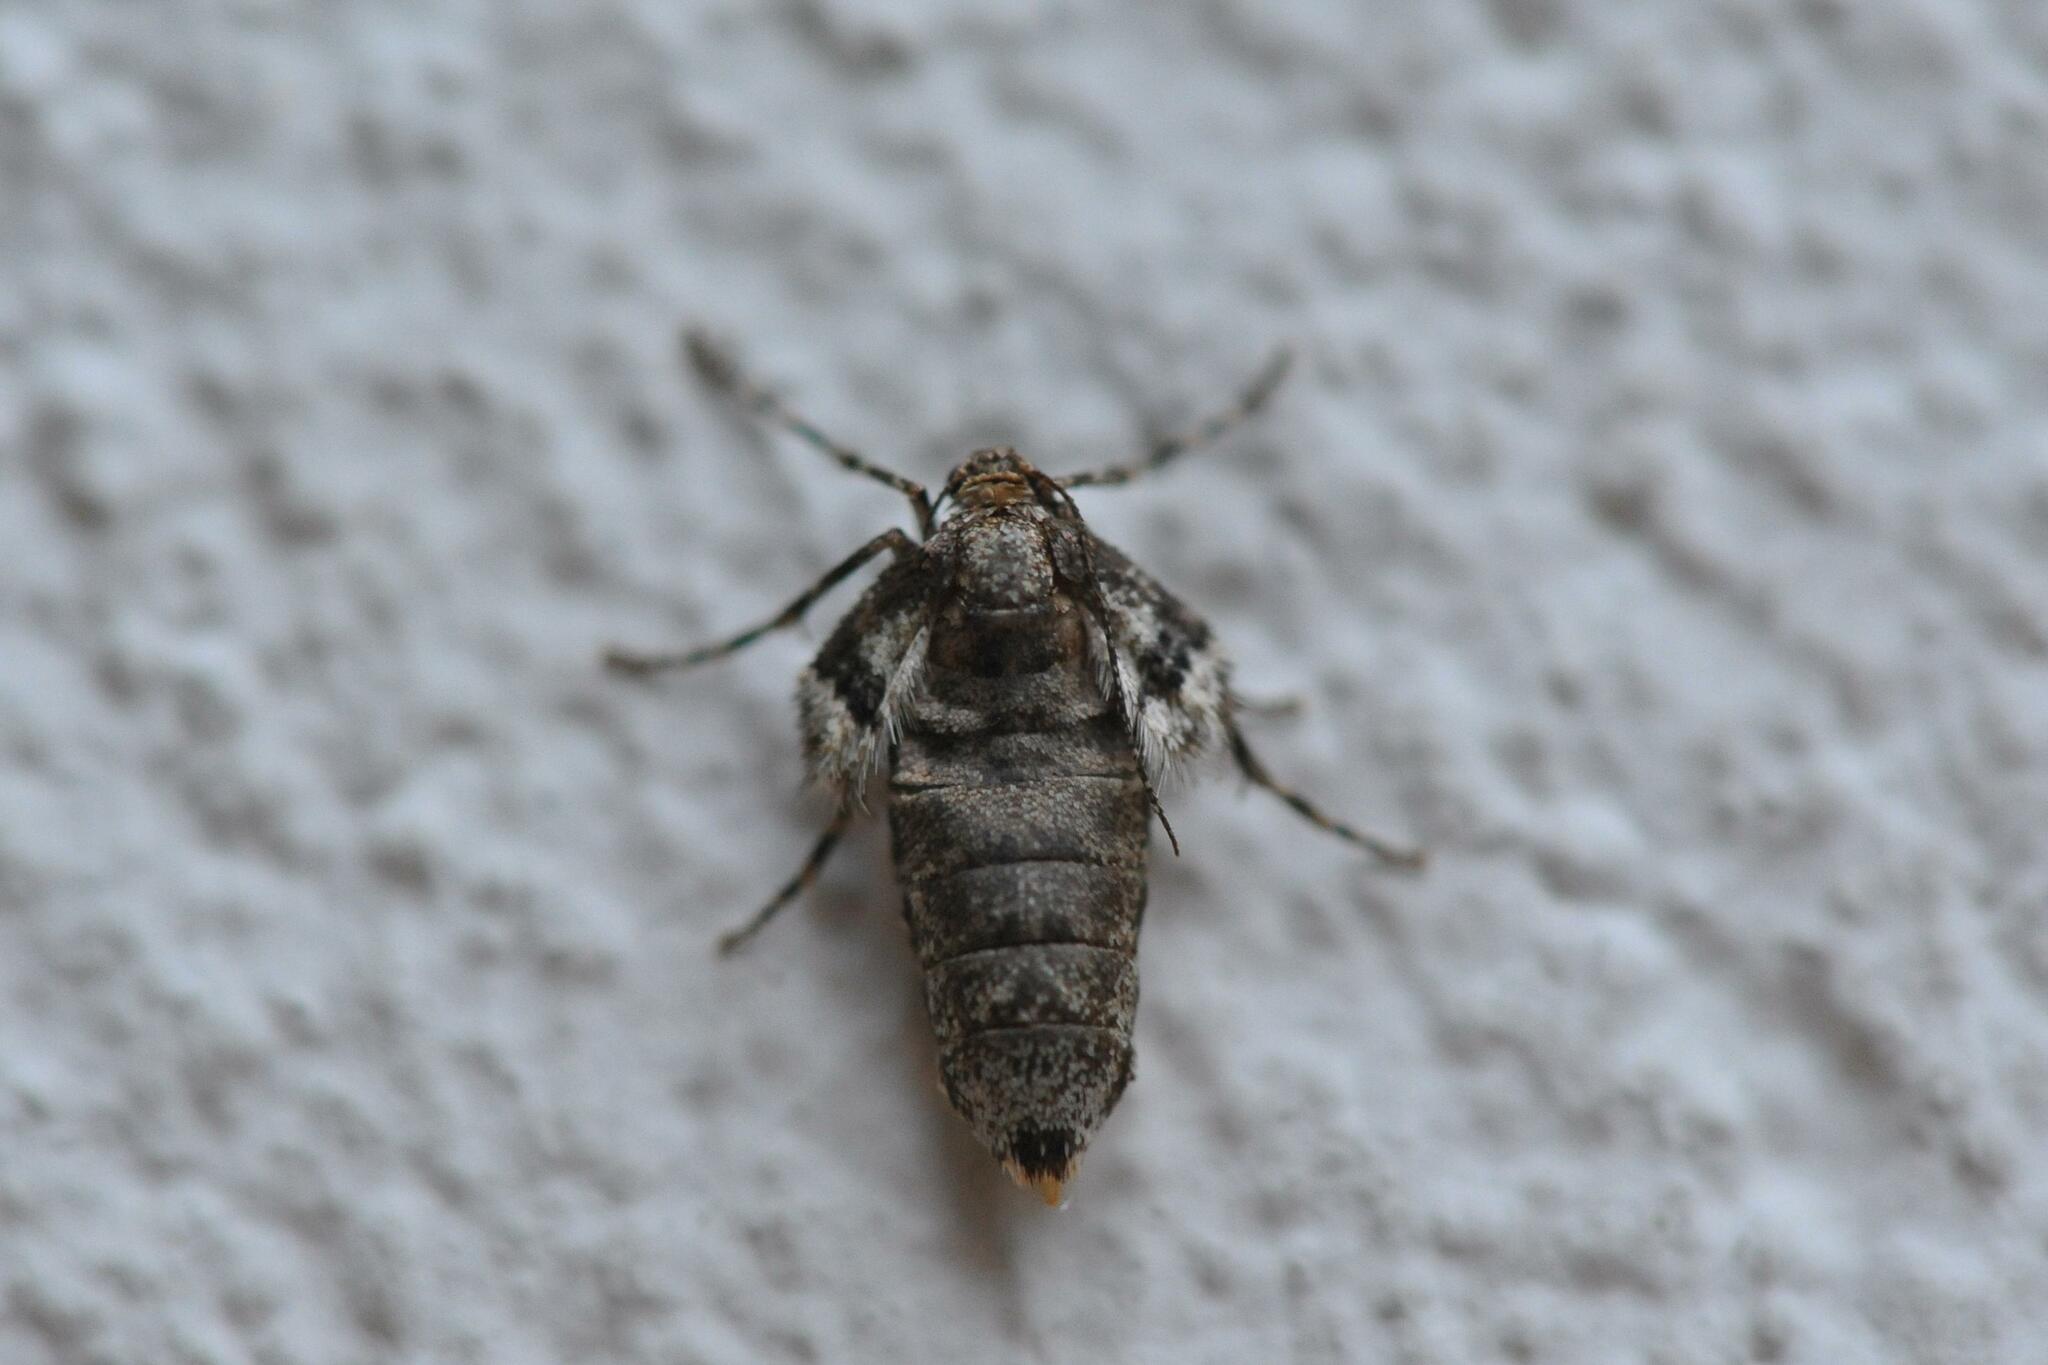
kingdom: Animalia
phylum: Arthropoda
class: Insecta
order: Lepidoptera
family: Geometridae
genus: Operophtera
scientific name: Operophtera brumata
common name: Winter moth
